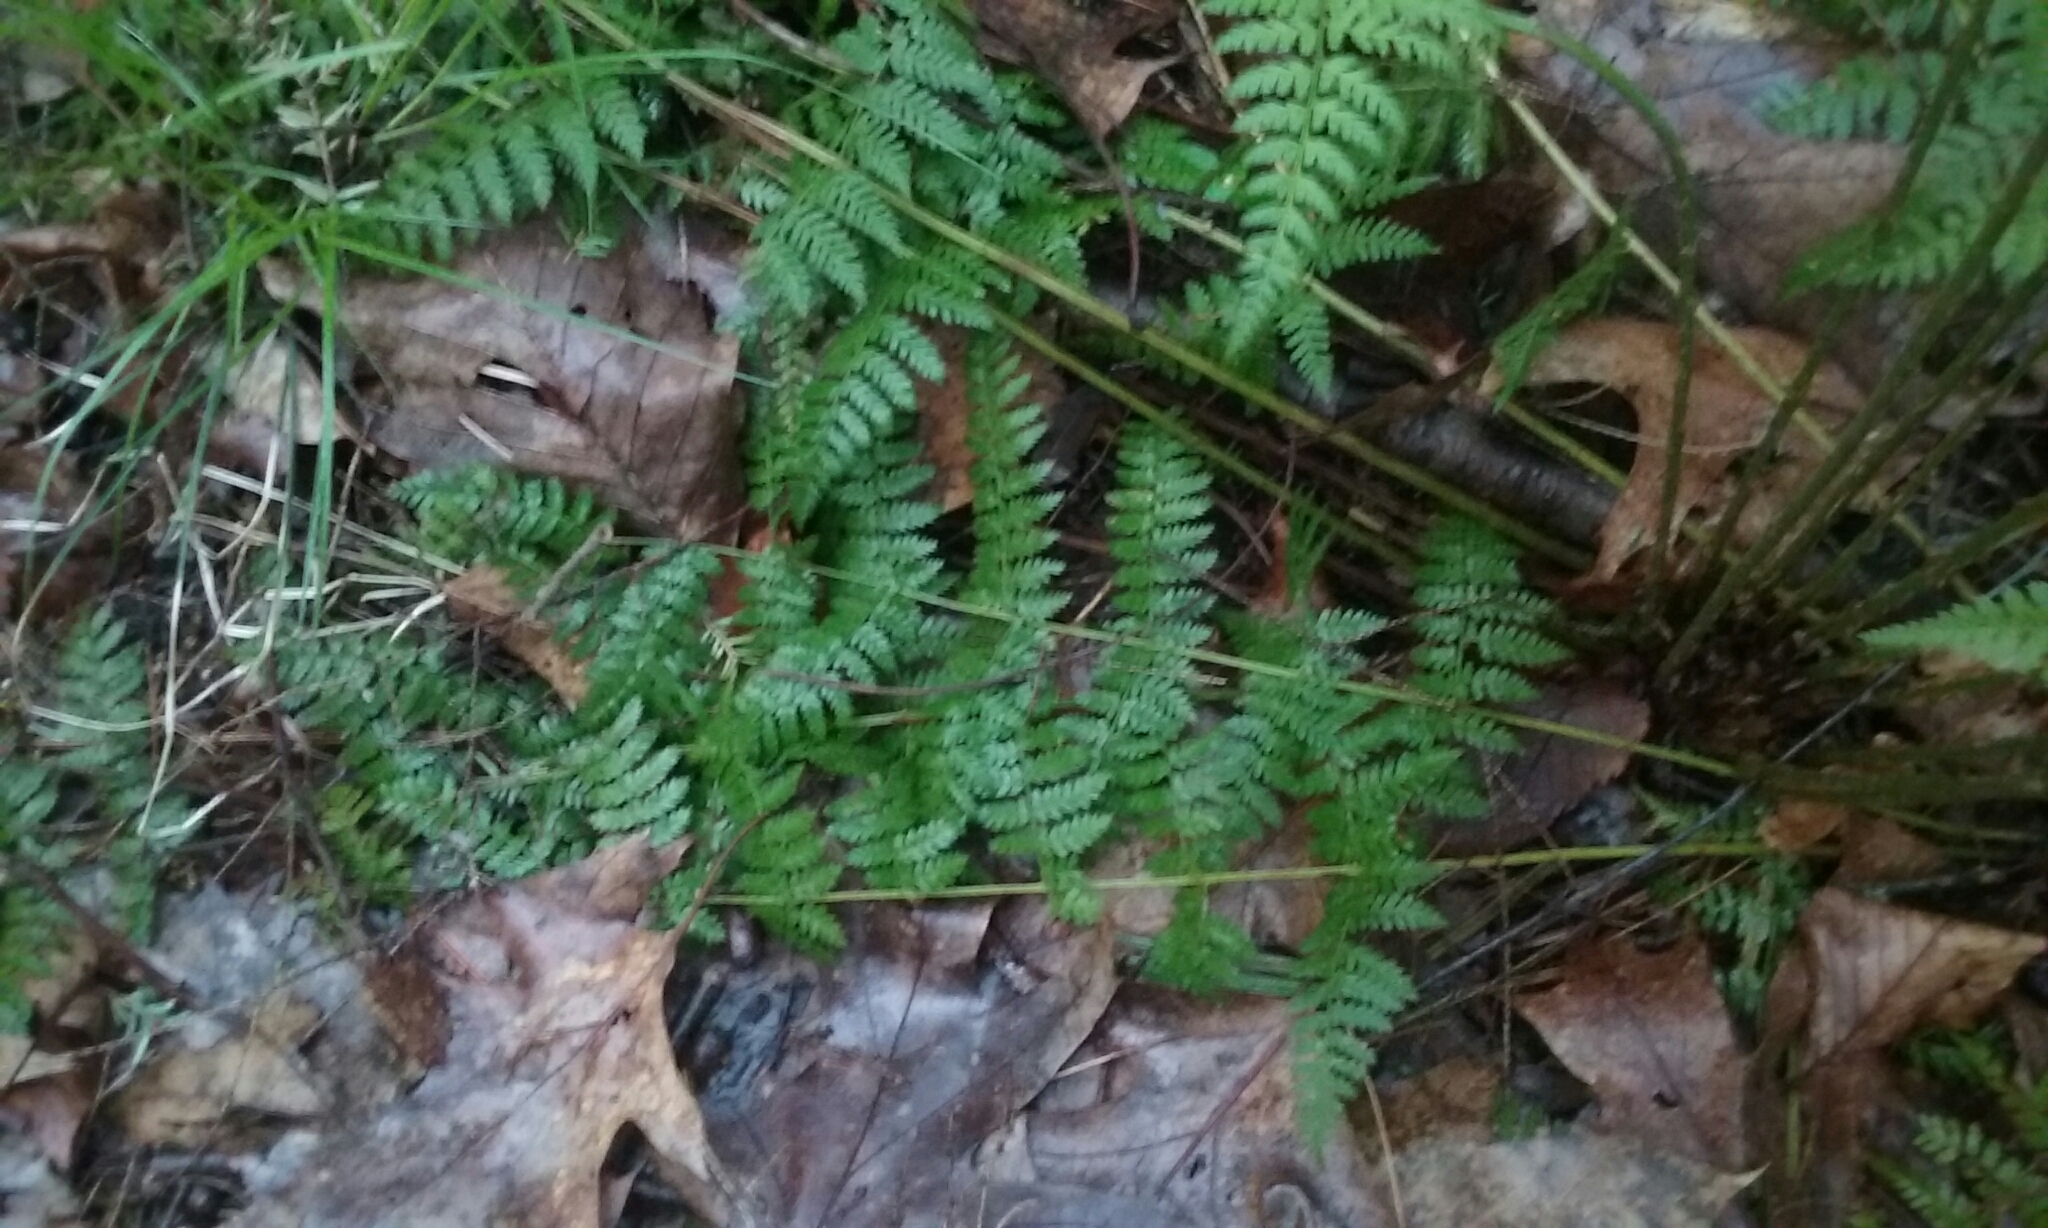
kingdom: Plantae
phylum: Tracheophyta
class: Polypodiopsida
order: Polypodiales
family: Dryopteridaceae
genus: Dryopteris
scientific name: Dryopteris intermedia
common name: Evergreen wood fern
